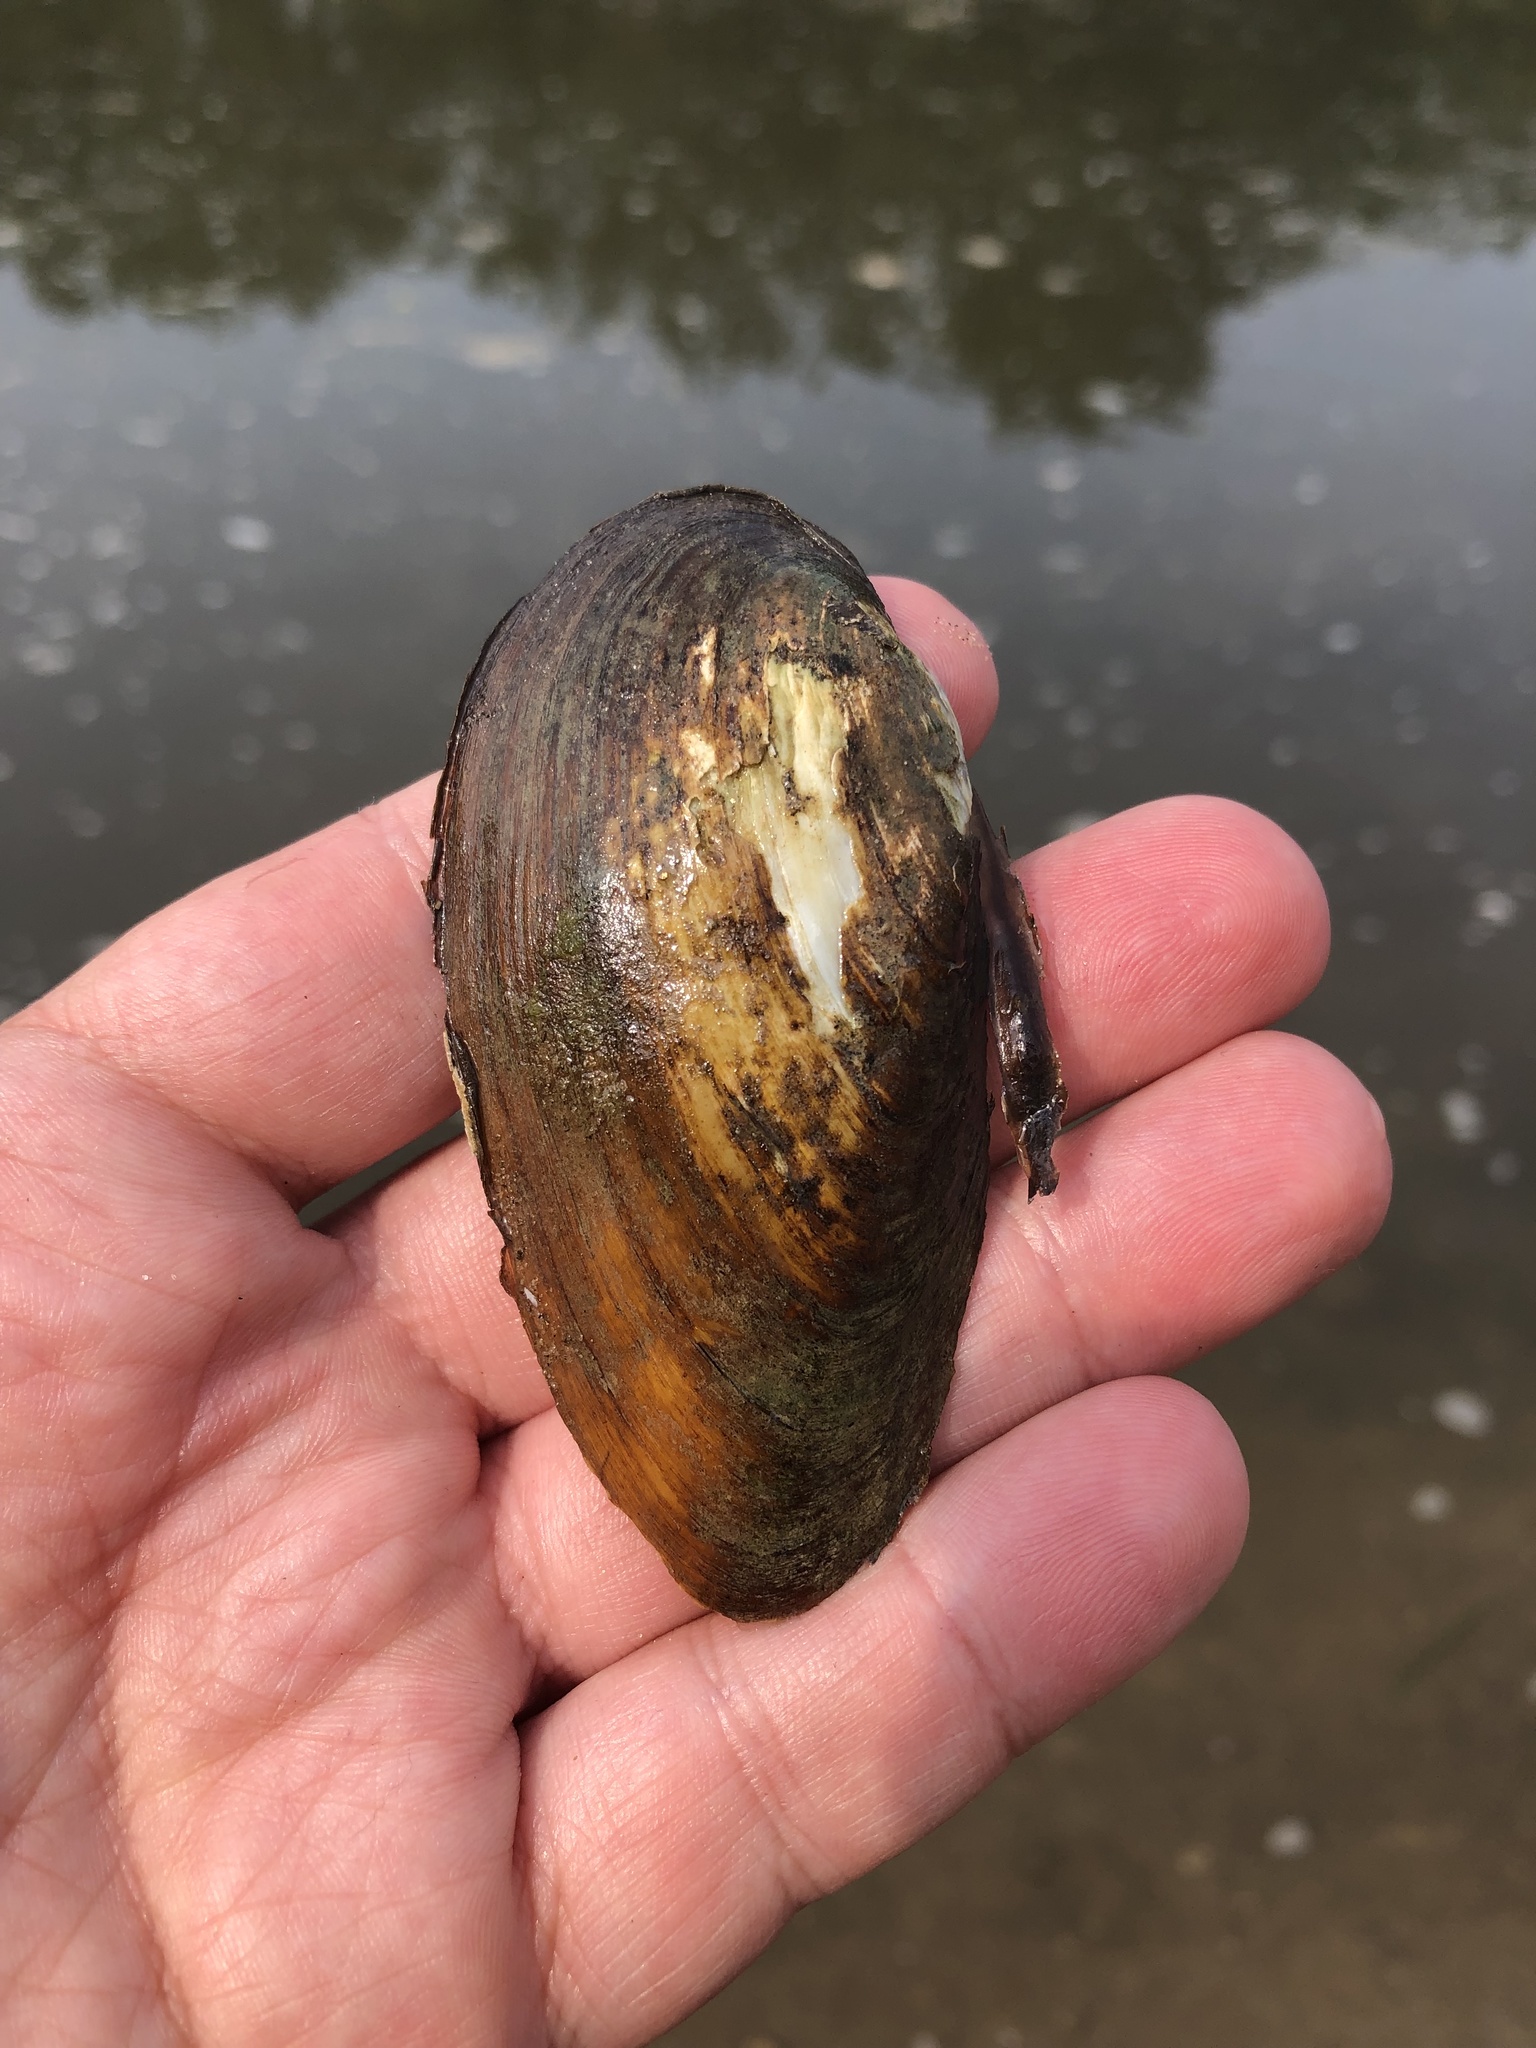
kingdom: Animalia
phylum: Mollusca
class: Bivalvia
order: Unionida
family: Unionidae
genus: Eurynia
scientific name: Eurynia dilatata
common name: Spike
